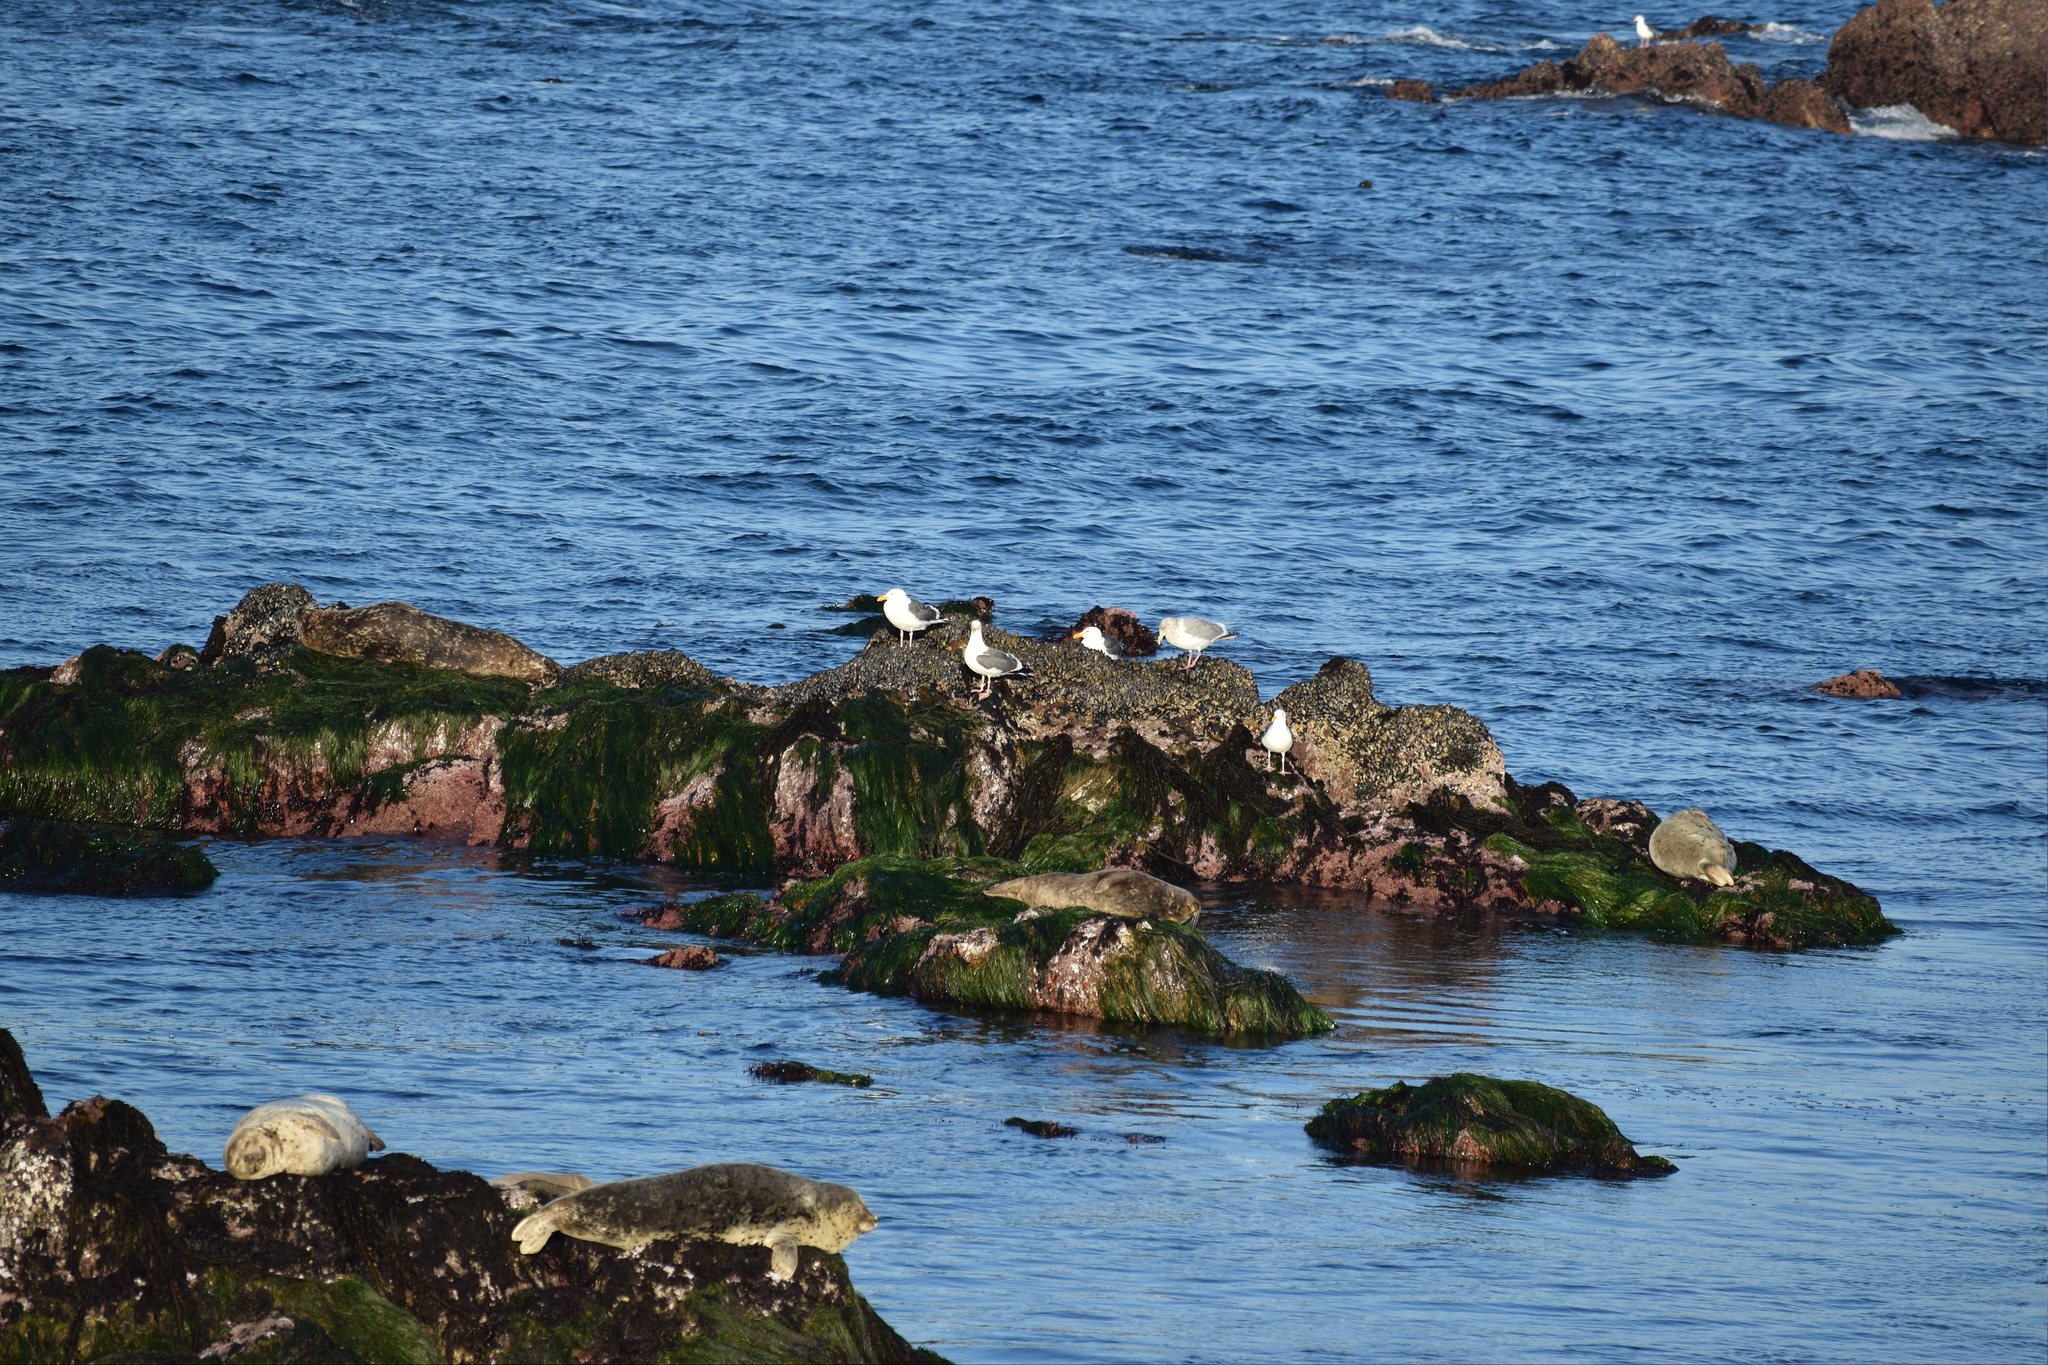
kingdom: Animalia
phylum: Chordata
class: Mammalia
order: Carnivora
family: Phocidae
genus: Phoca
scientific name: Phoca vitulina
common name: Harbor seal
